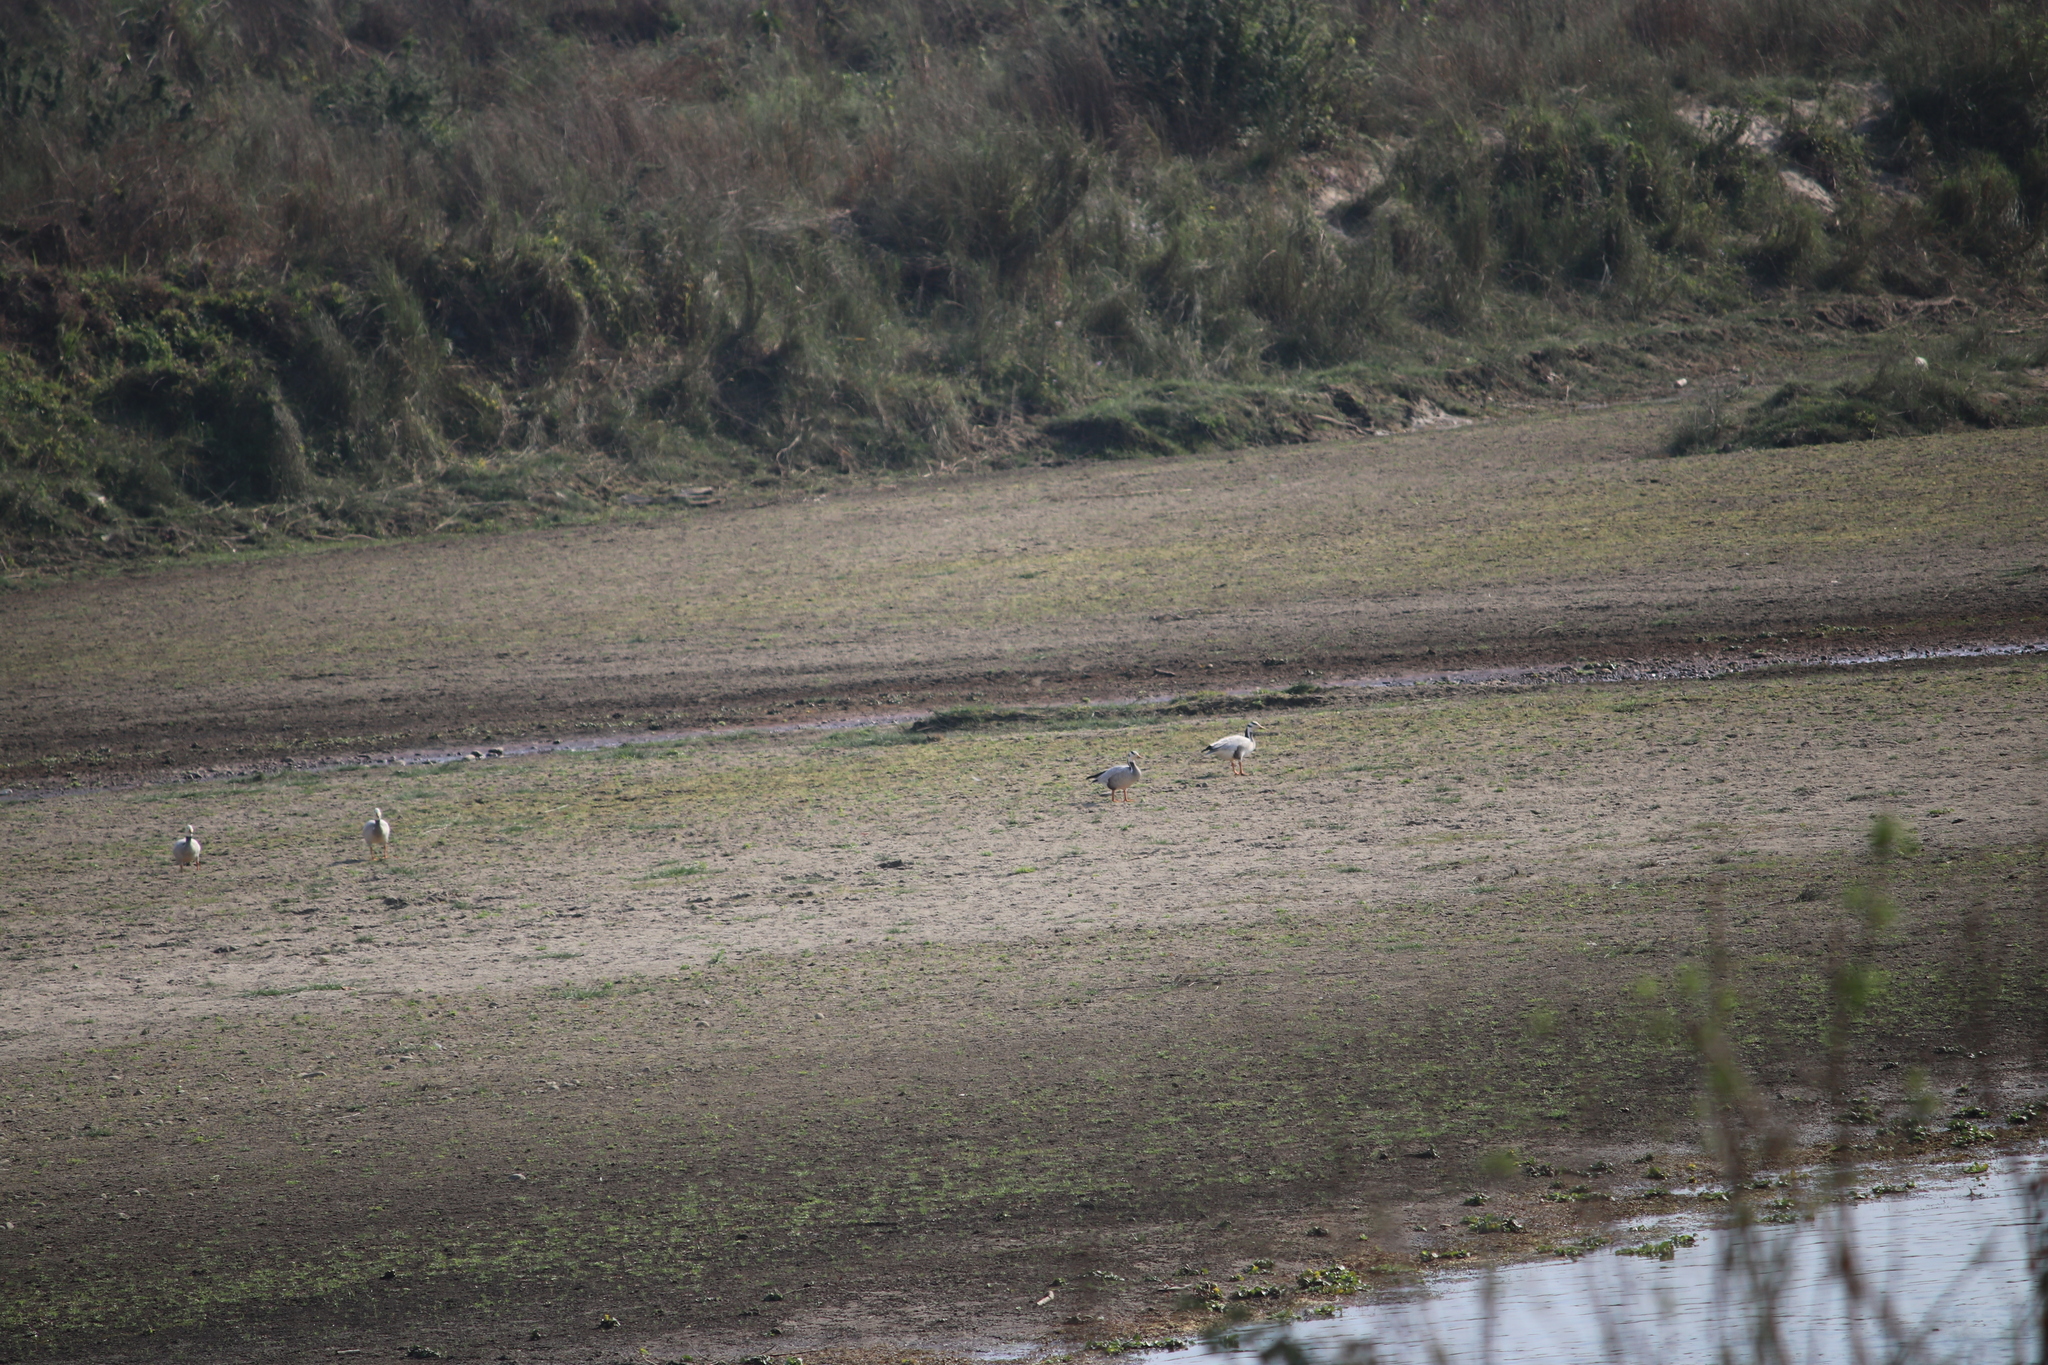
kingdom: Animalia
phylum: Chordata
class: Aves
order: Anseriformes
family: Anatidae
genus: Anser
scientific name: Anser indicus
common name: Bar-headed goose
